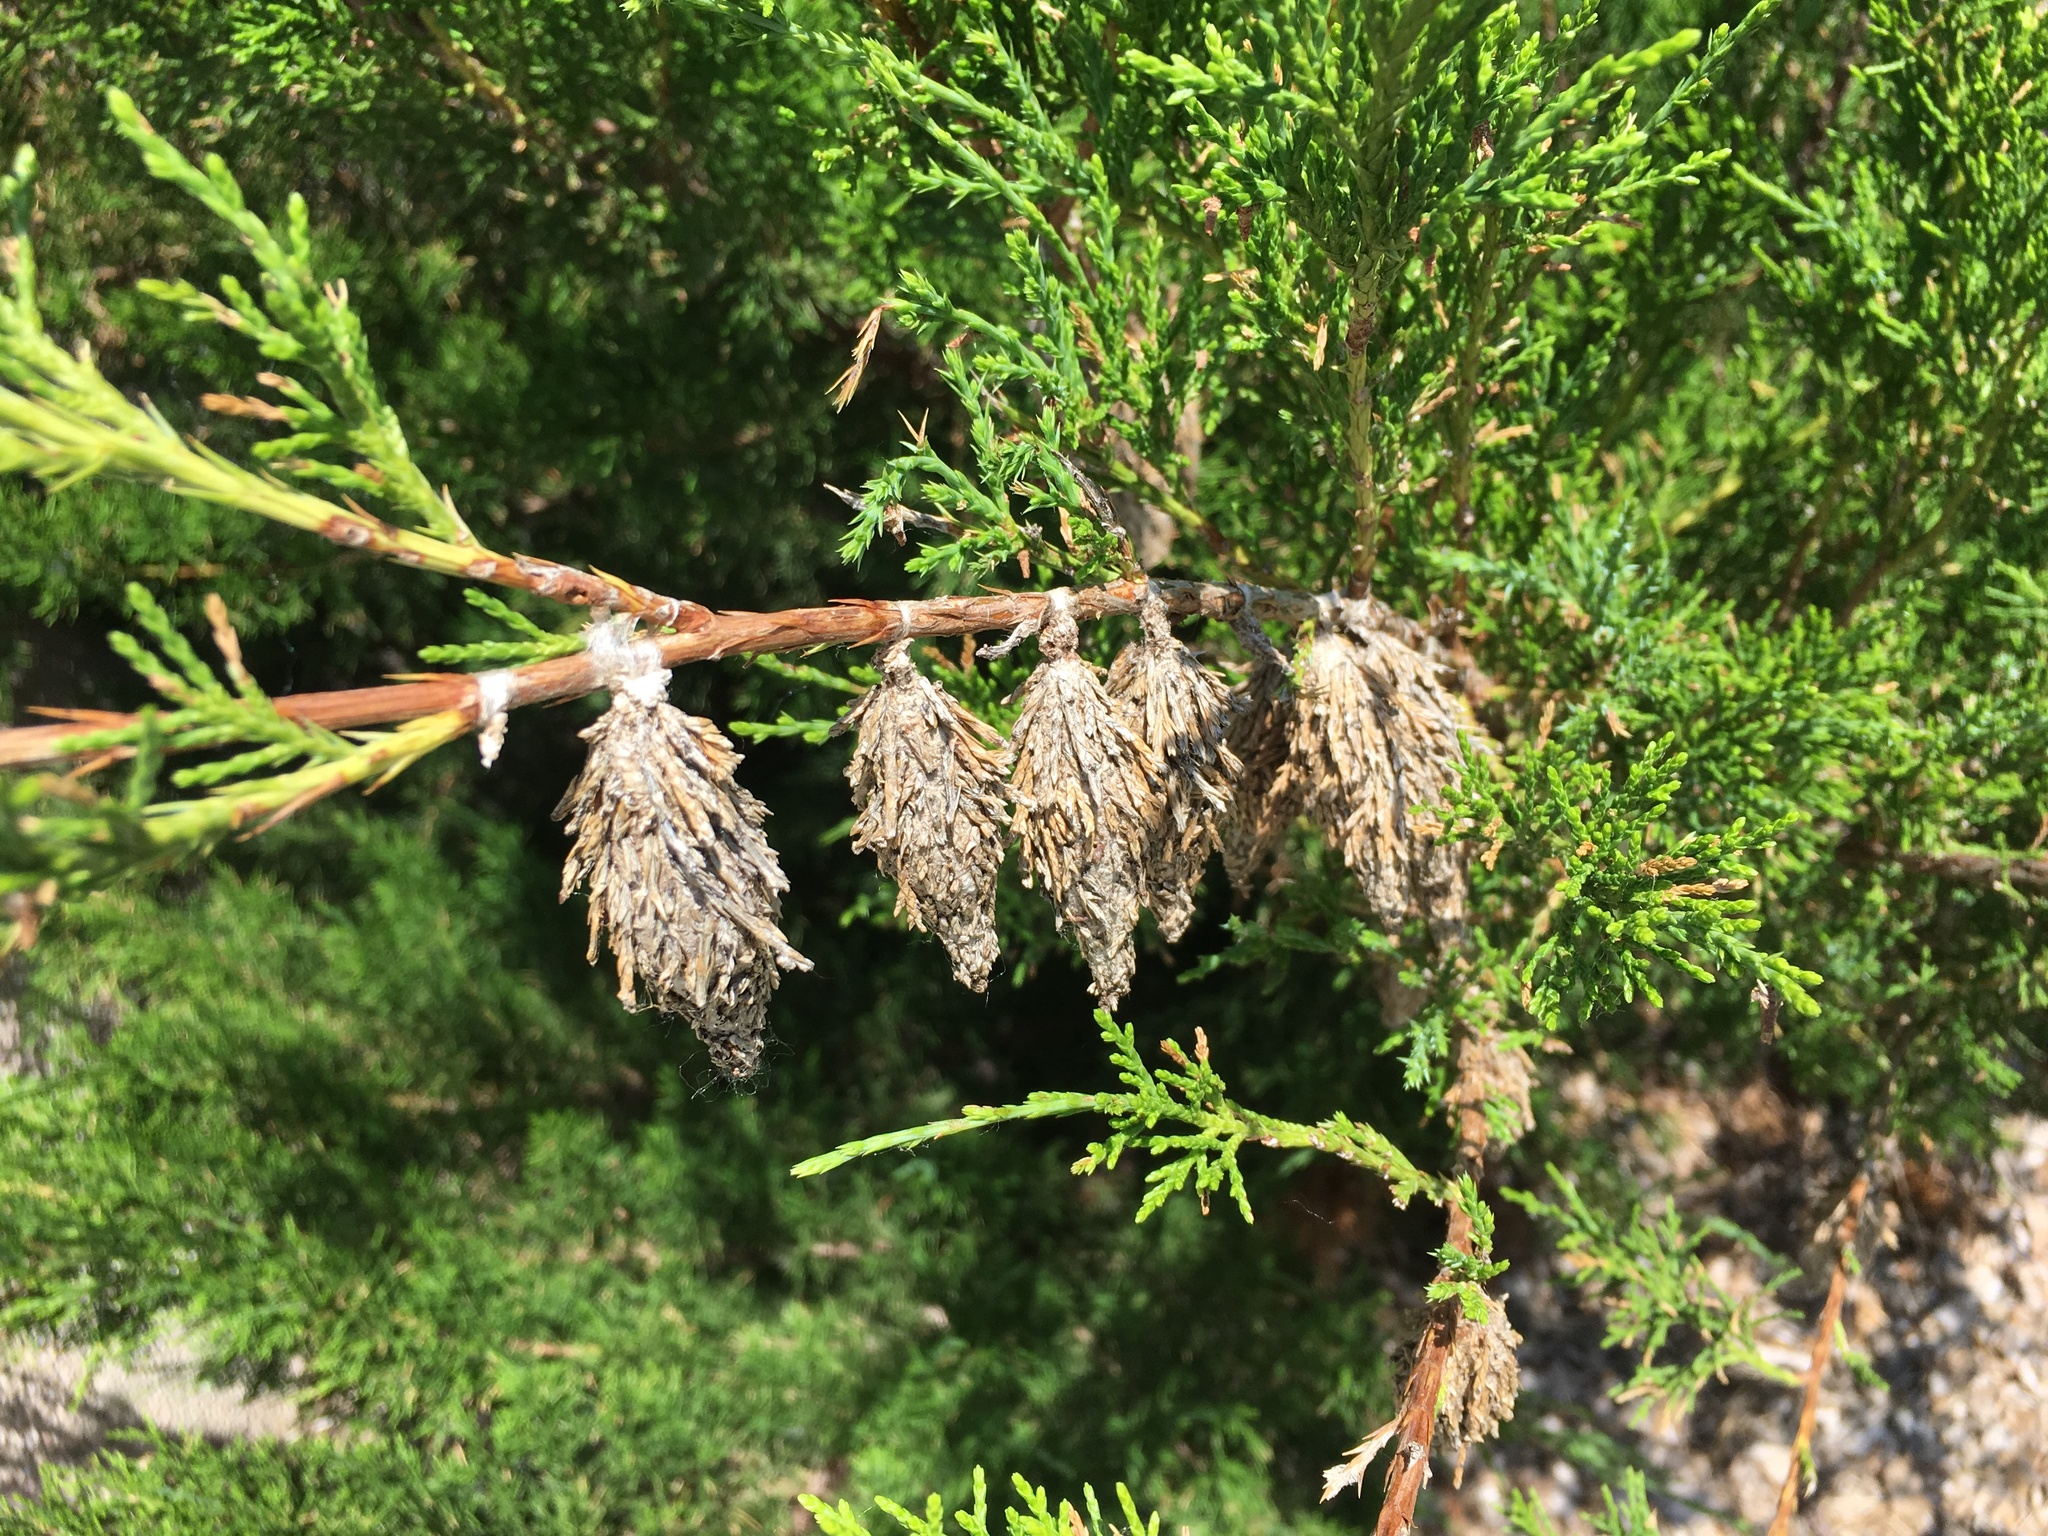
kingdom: Animalia
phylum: Arthropoda
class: Insecta
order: Lepidoptera
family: Psychidae
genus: Thyridopteryx
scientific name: Thyridopteryx ephemeraeformis
